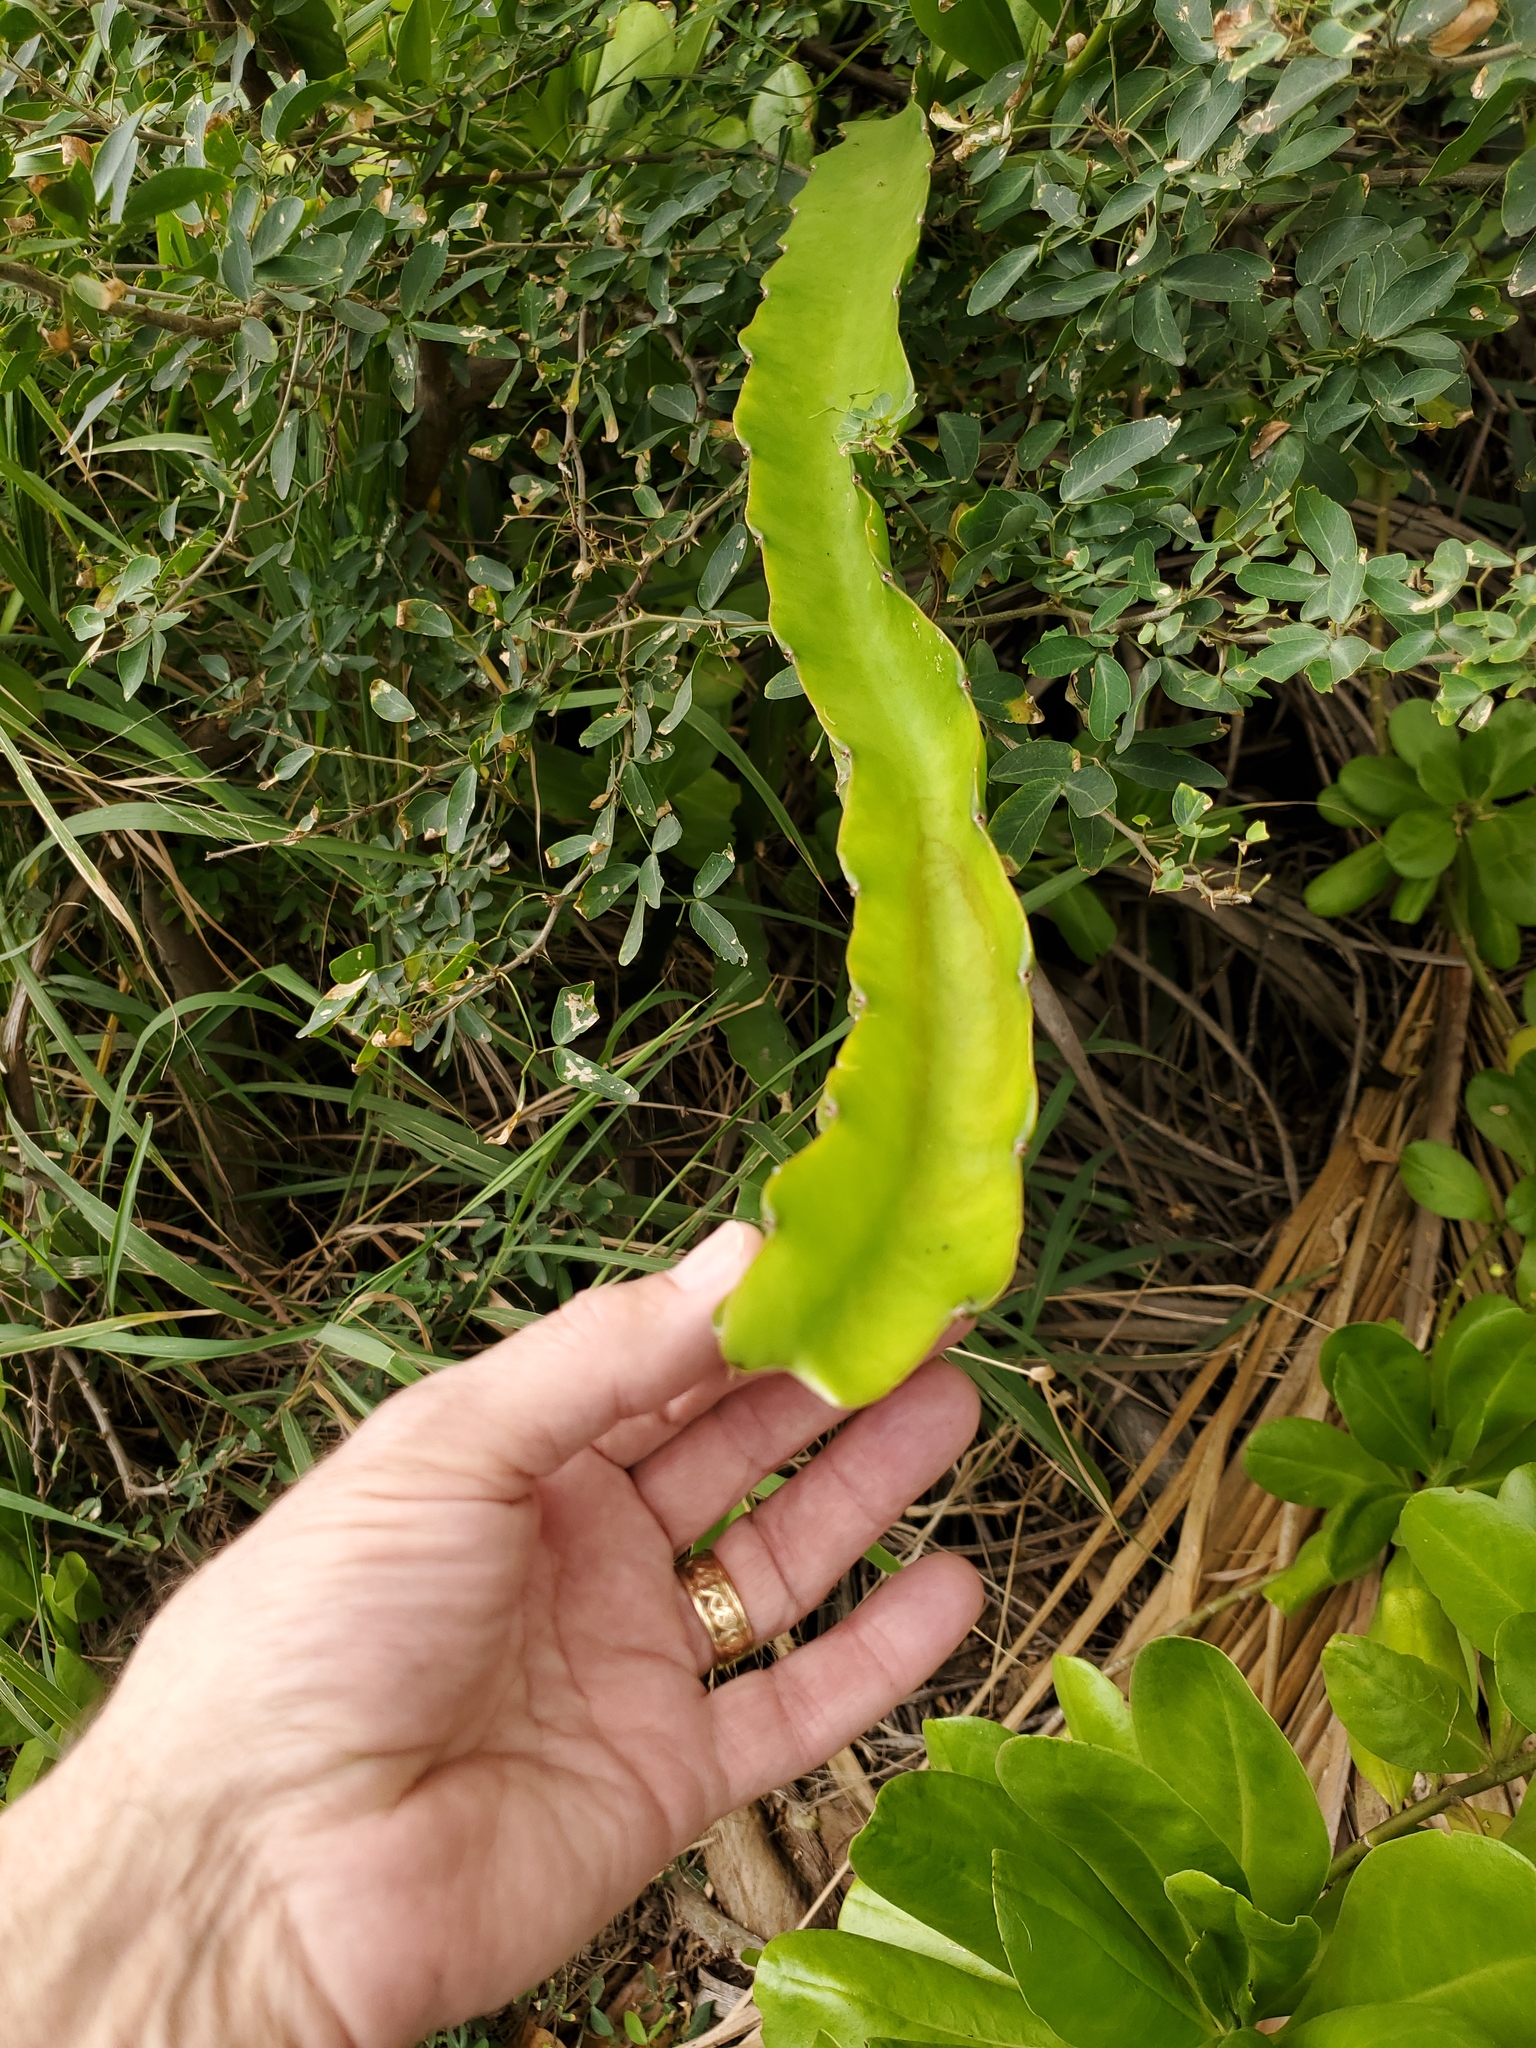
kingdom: Plantae
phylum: Tracheophyta
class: Magnoliopsida
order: Caryophyllales
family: Cactaceae
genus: Selenicereus
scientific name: Selenicereus undatus
